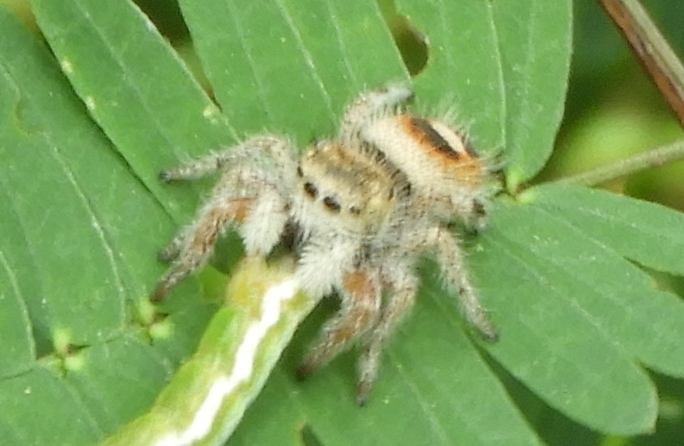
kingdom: Animalia
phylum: Arthropoda
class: Arachnida
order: Araneae
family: Salticidae
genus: Phidippus
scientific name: Phidippus pacosauritus
